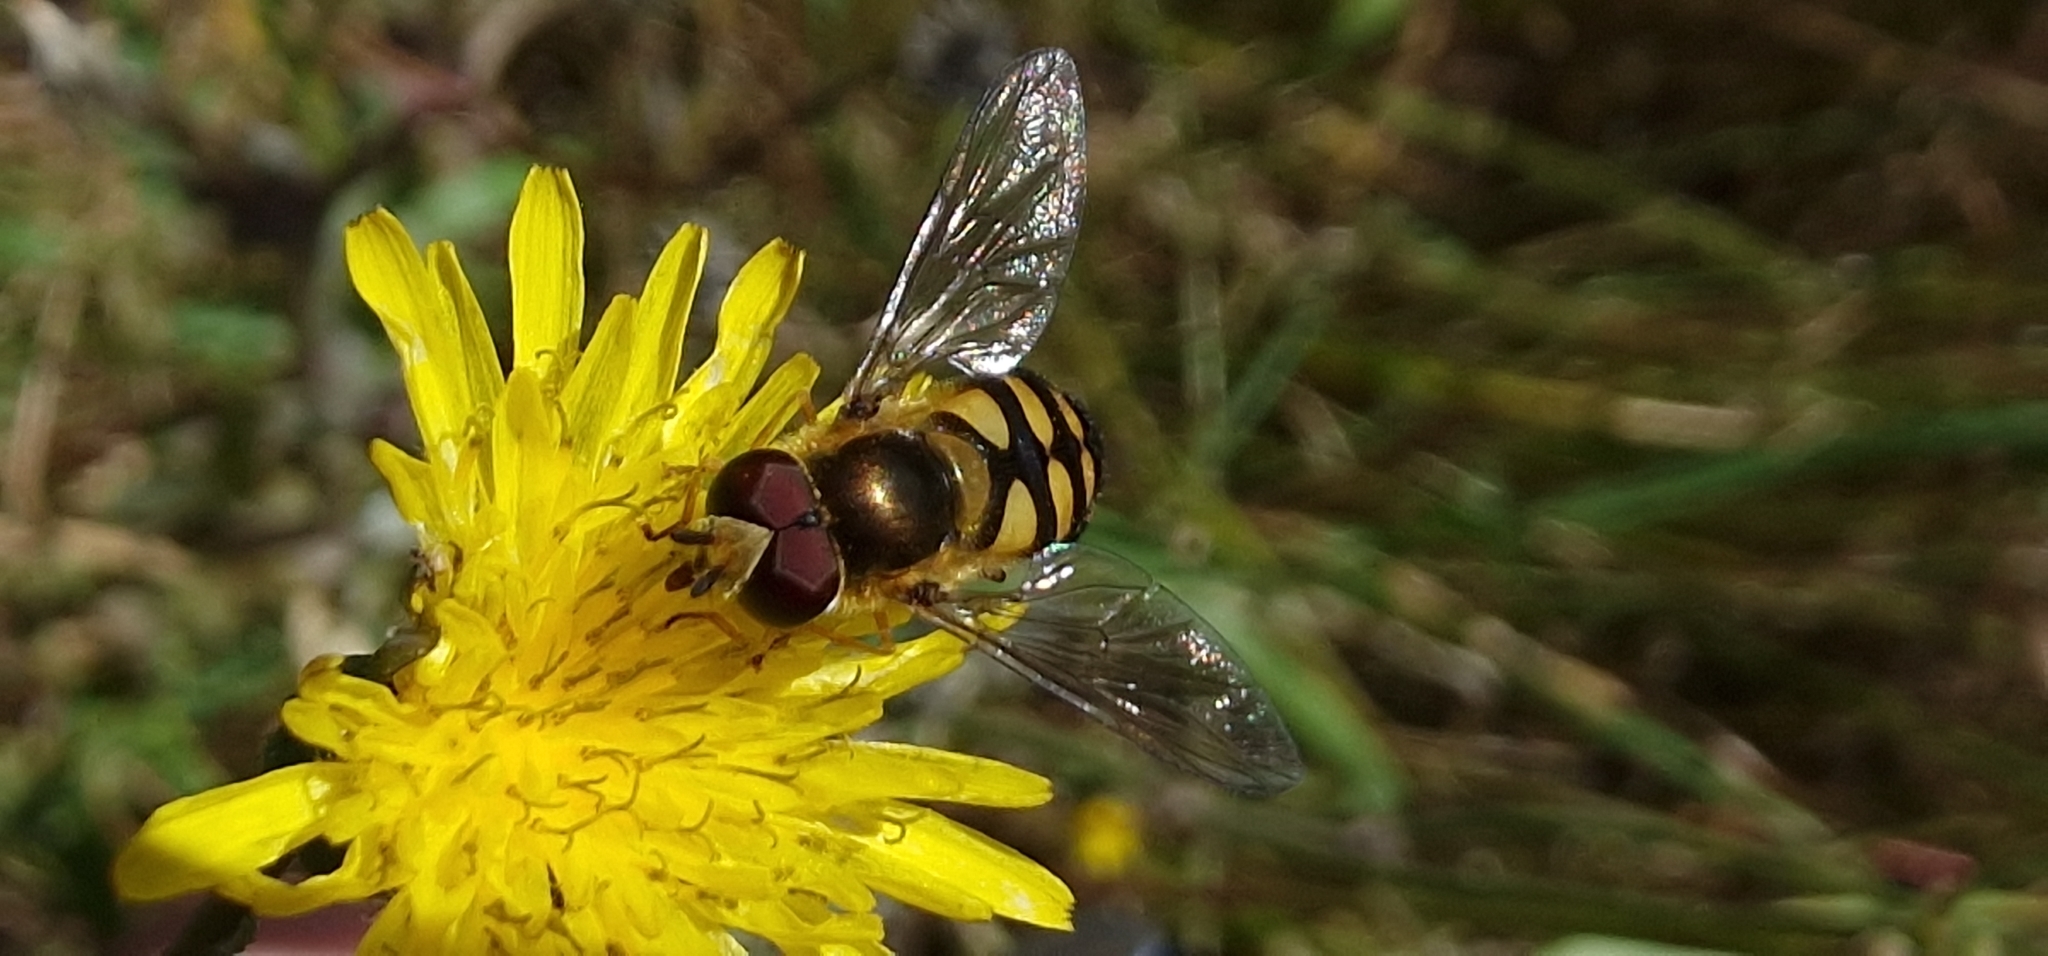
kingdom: Animalia
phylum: Arthropoda
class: Insecta
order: Diptera
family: Syrphidae
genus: Eupeodes
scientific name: Eupeodes
